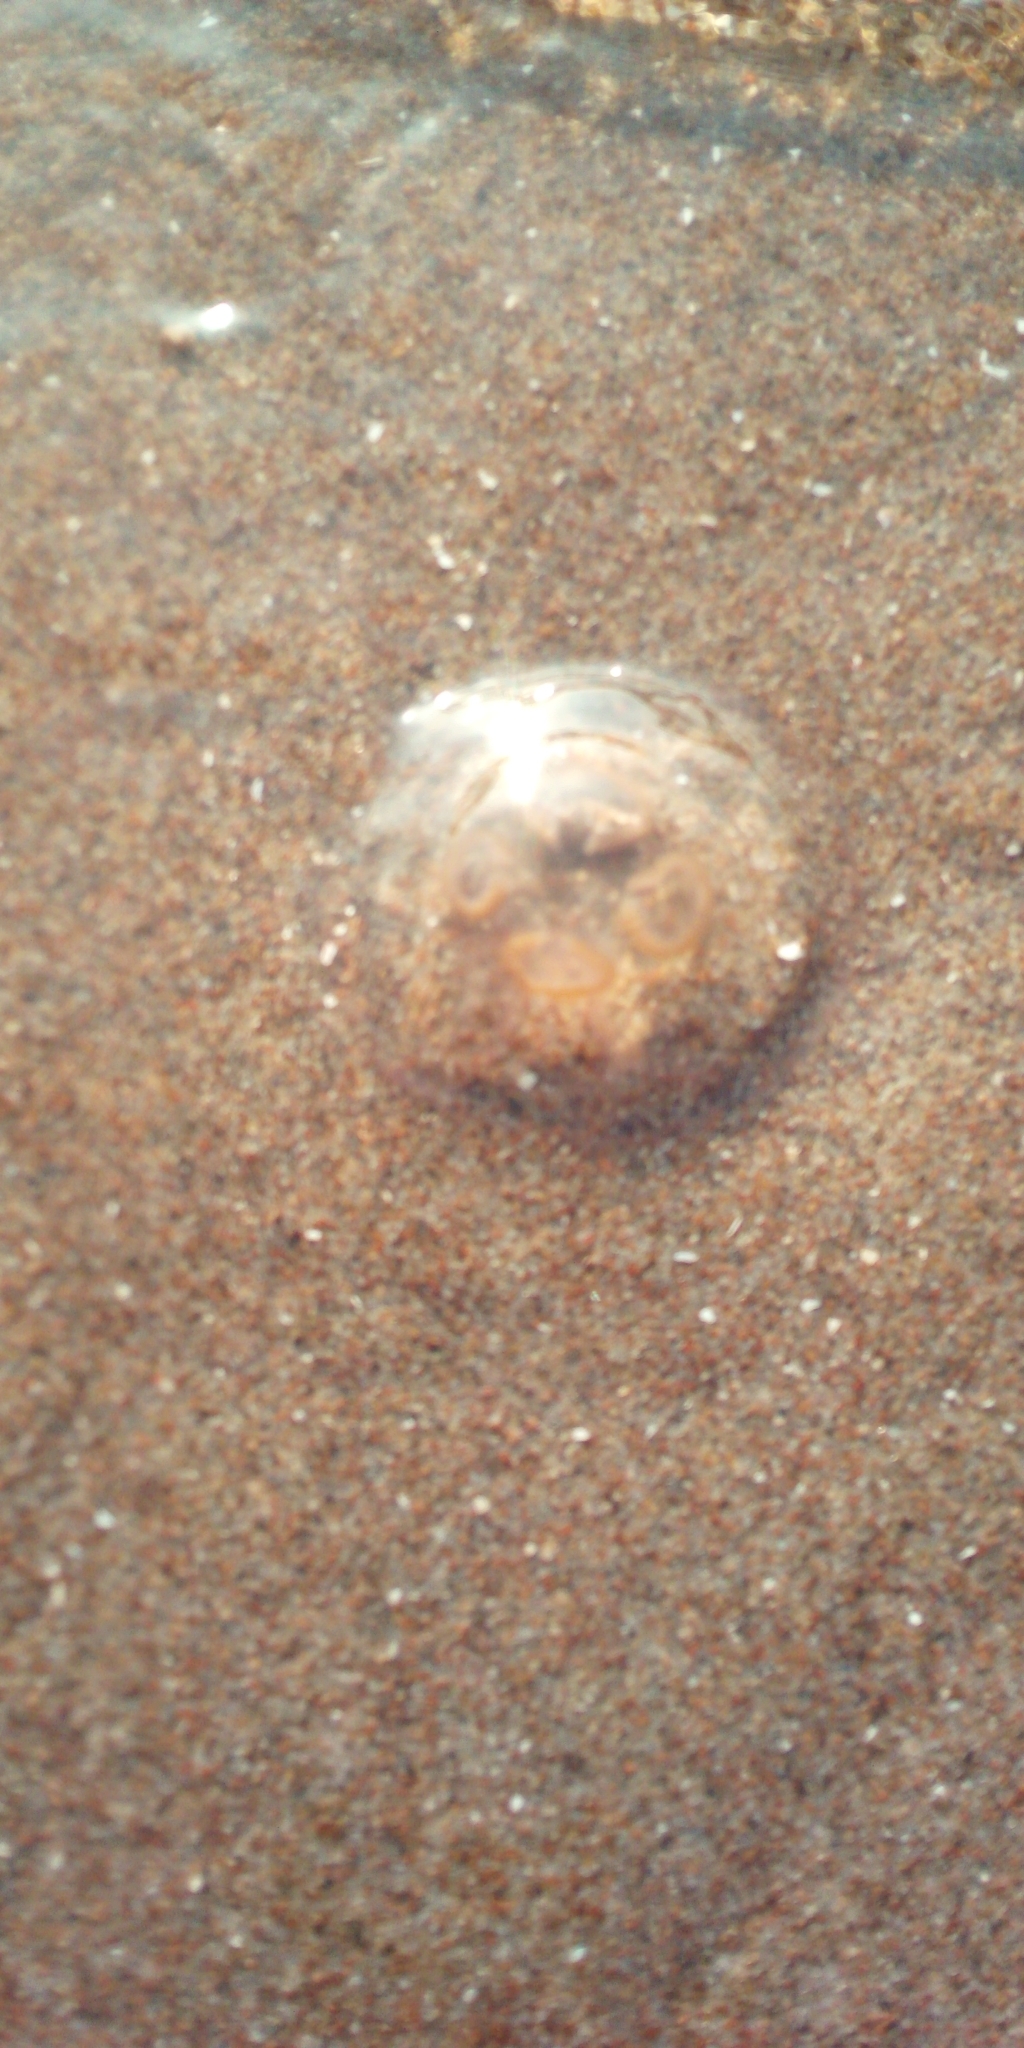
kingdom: Animalia
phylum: Cnidaria
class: Scyphozoa
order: Semaeostomeae
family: Ulmaridae
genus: Aurelia
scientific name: Aurelia aurita
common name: Moon jellyfish
